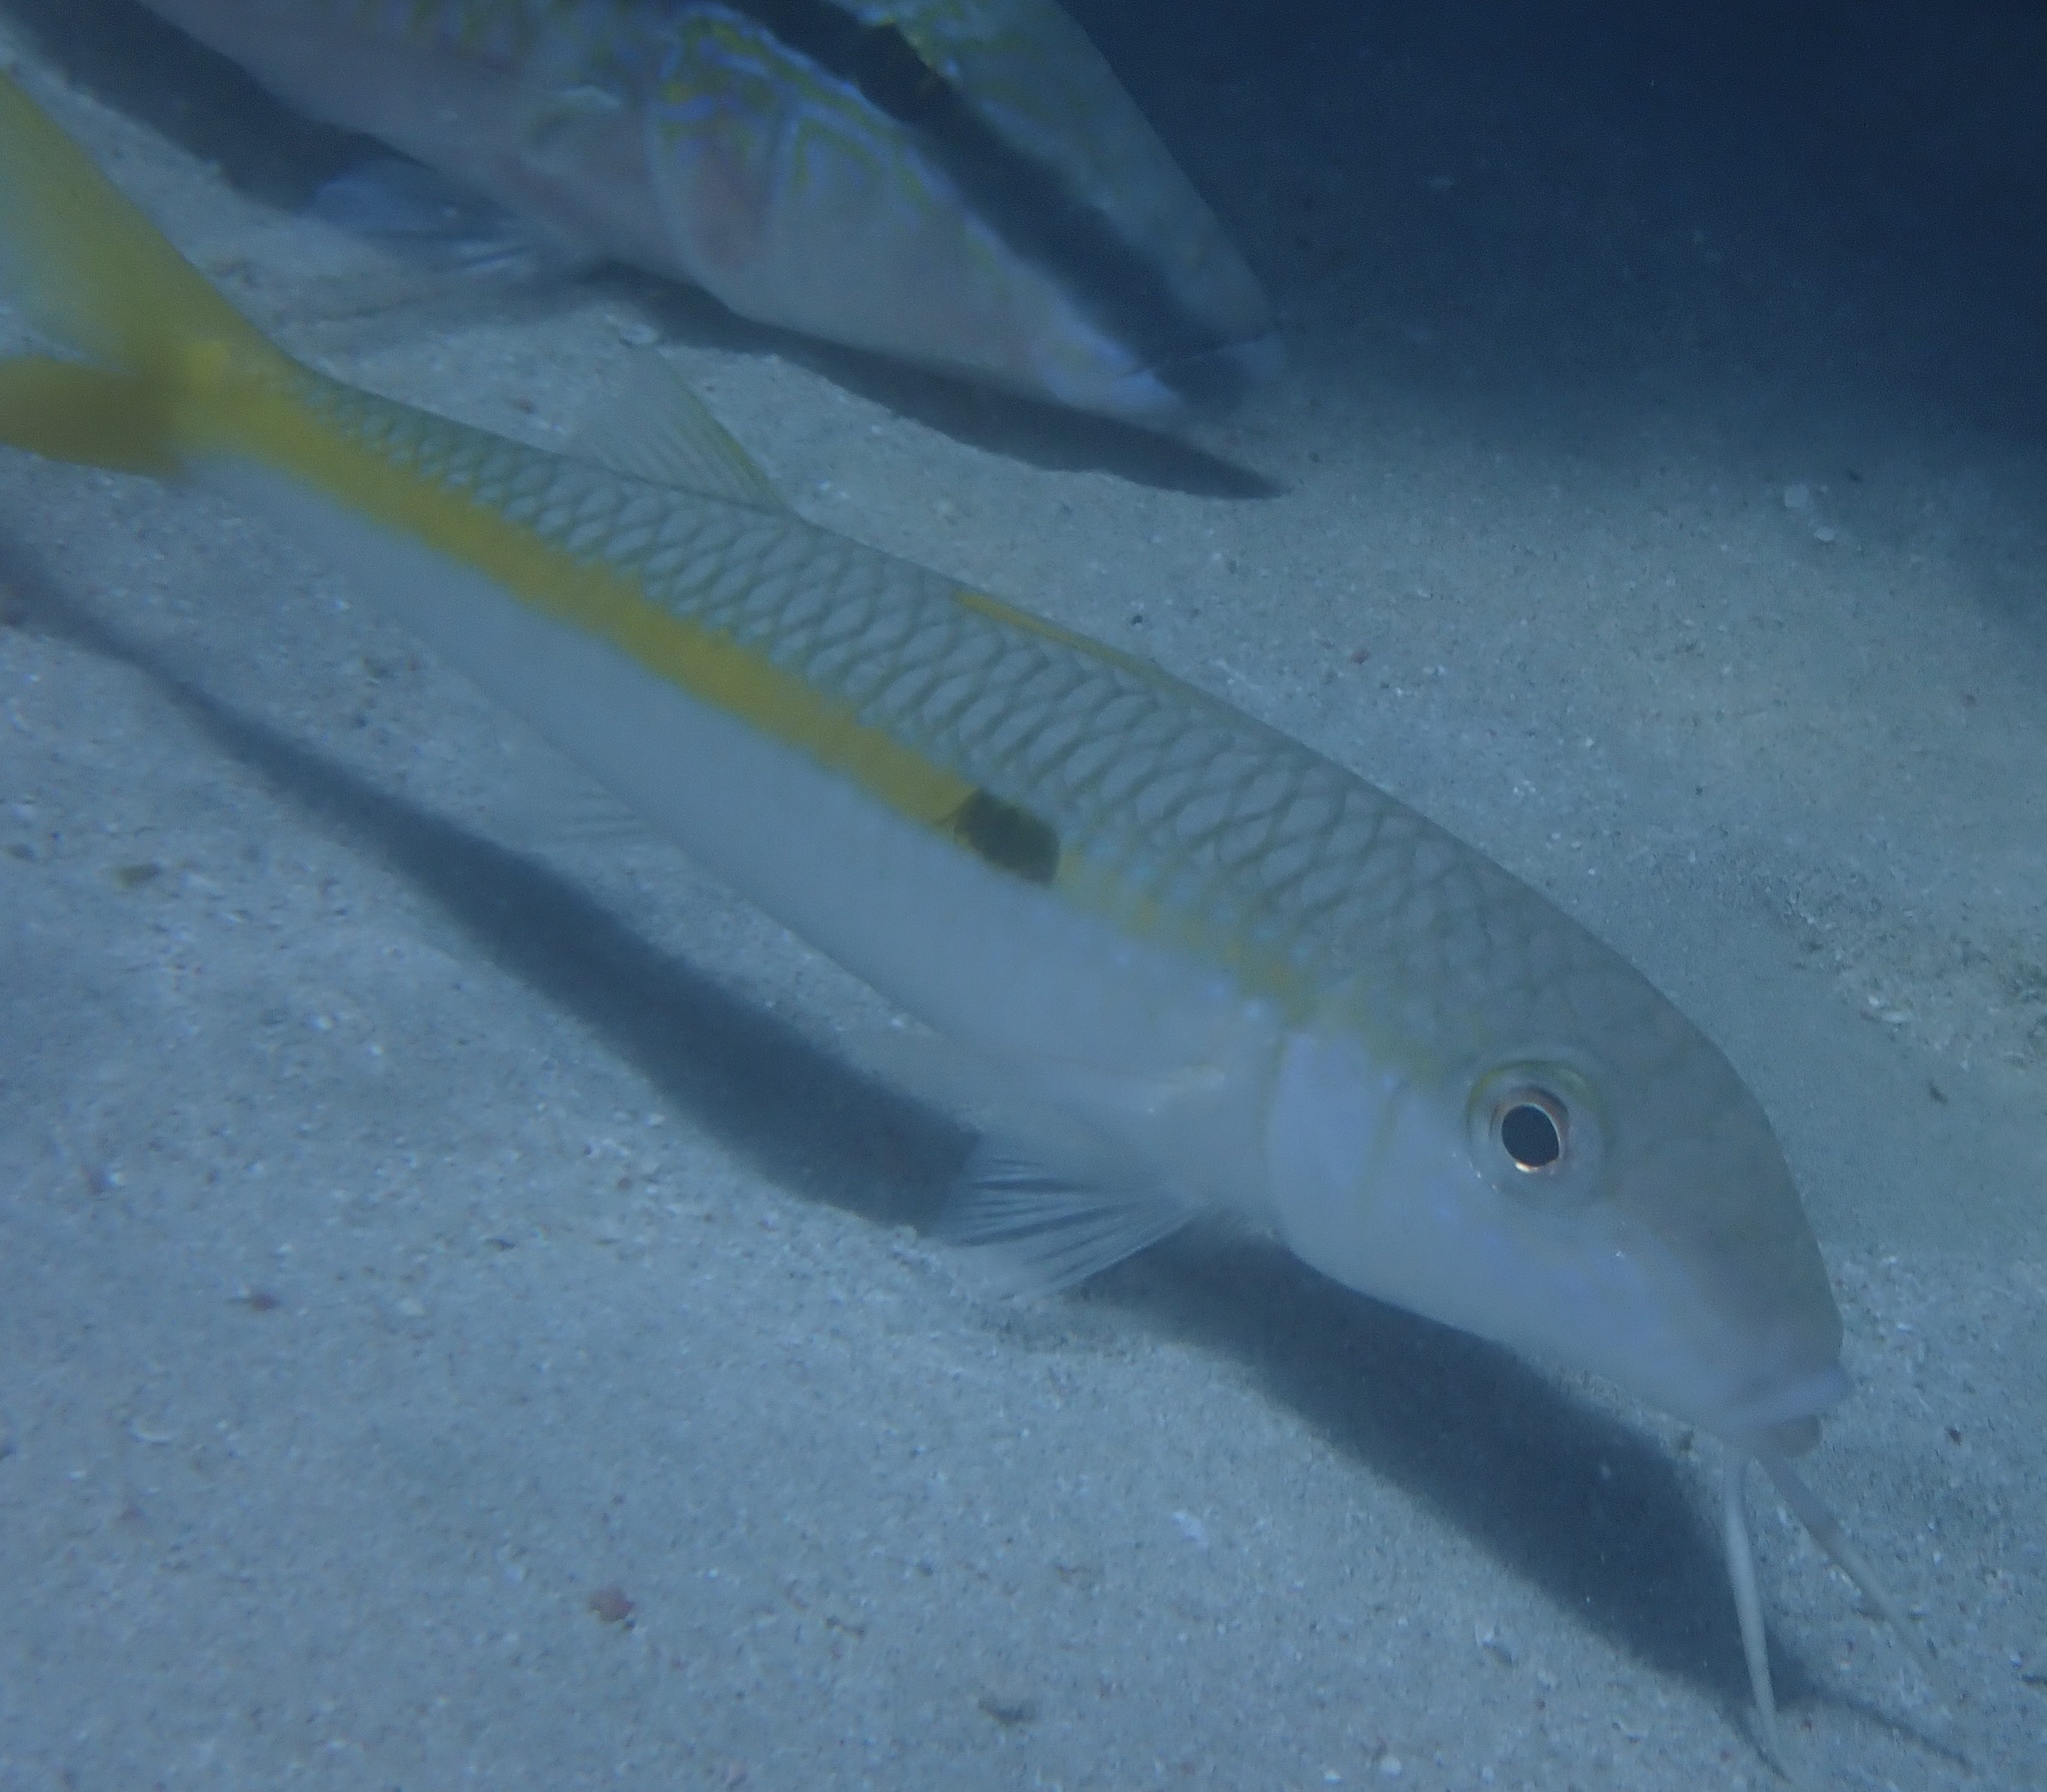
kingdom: Animalia
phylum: Chordata
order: Perciformes
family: Mullidae
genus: Mulloidichthys
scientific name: Mulloidichthys flavolineatus
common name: Yellowstripe goatfish
